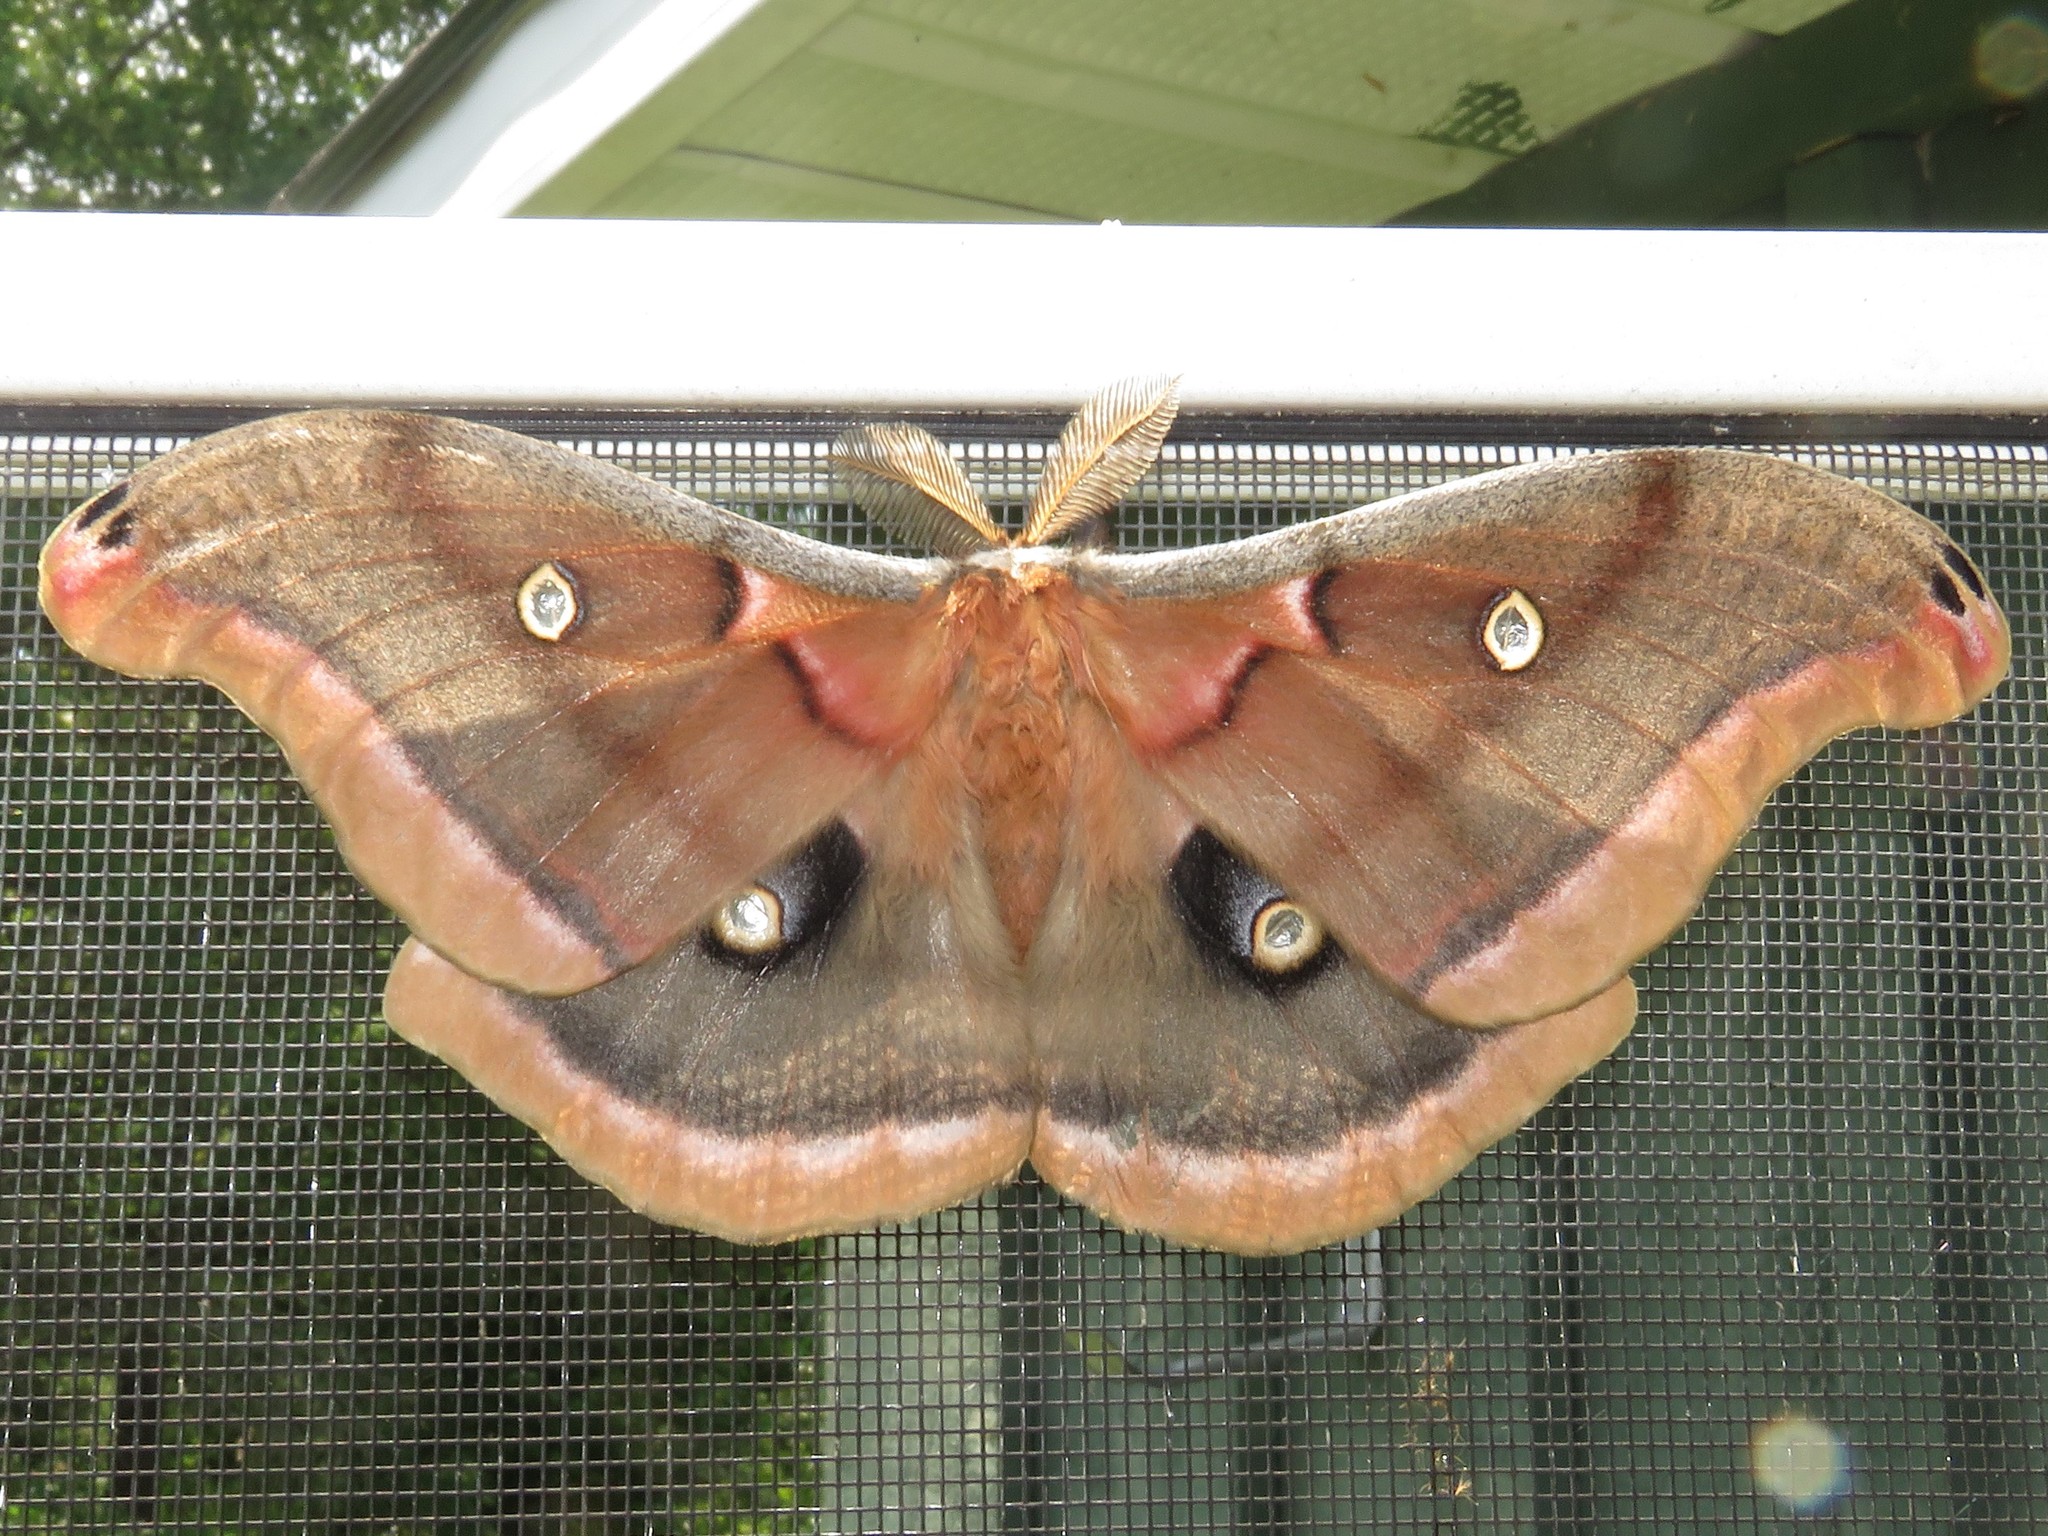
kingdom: Animalia
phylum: Arthropoda
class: Insecta
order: Lepidoptera
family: Saturniidae
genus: Antheraea
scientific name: Antheraea polyphemus
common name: Polyphemus moth
